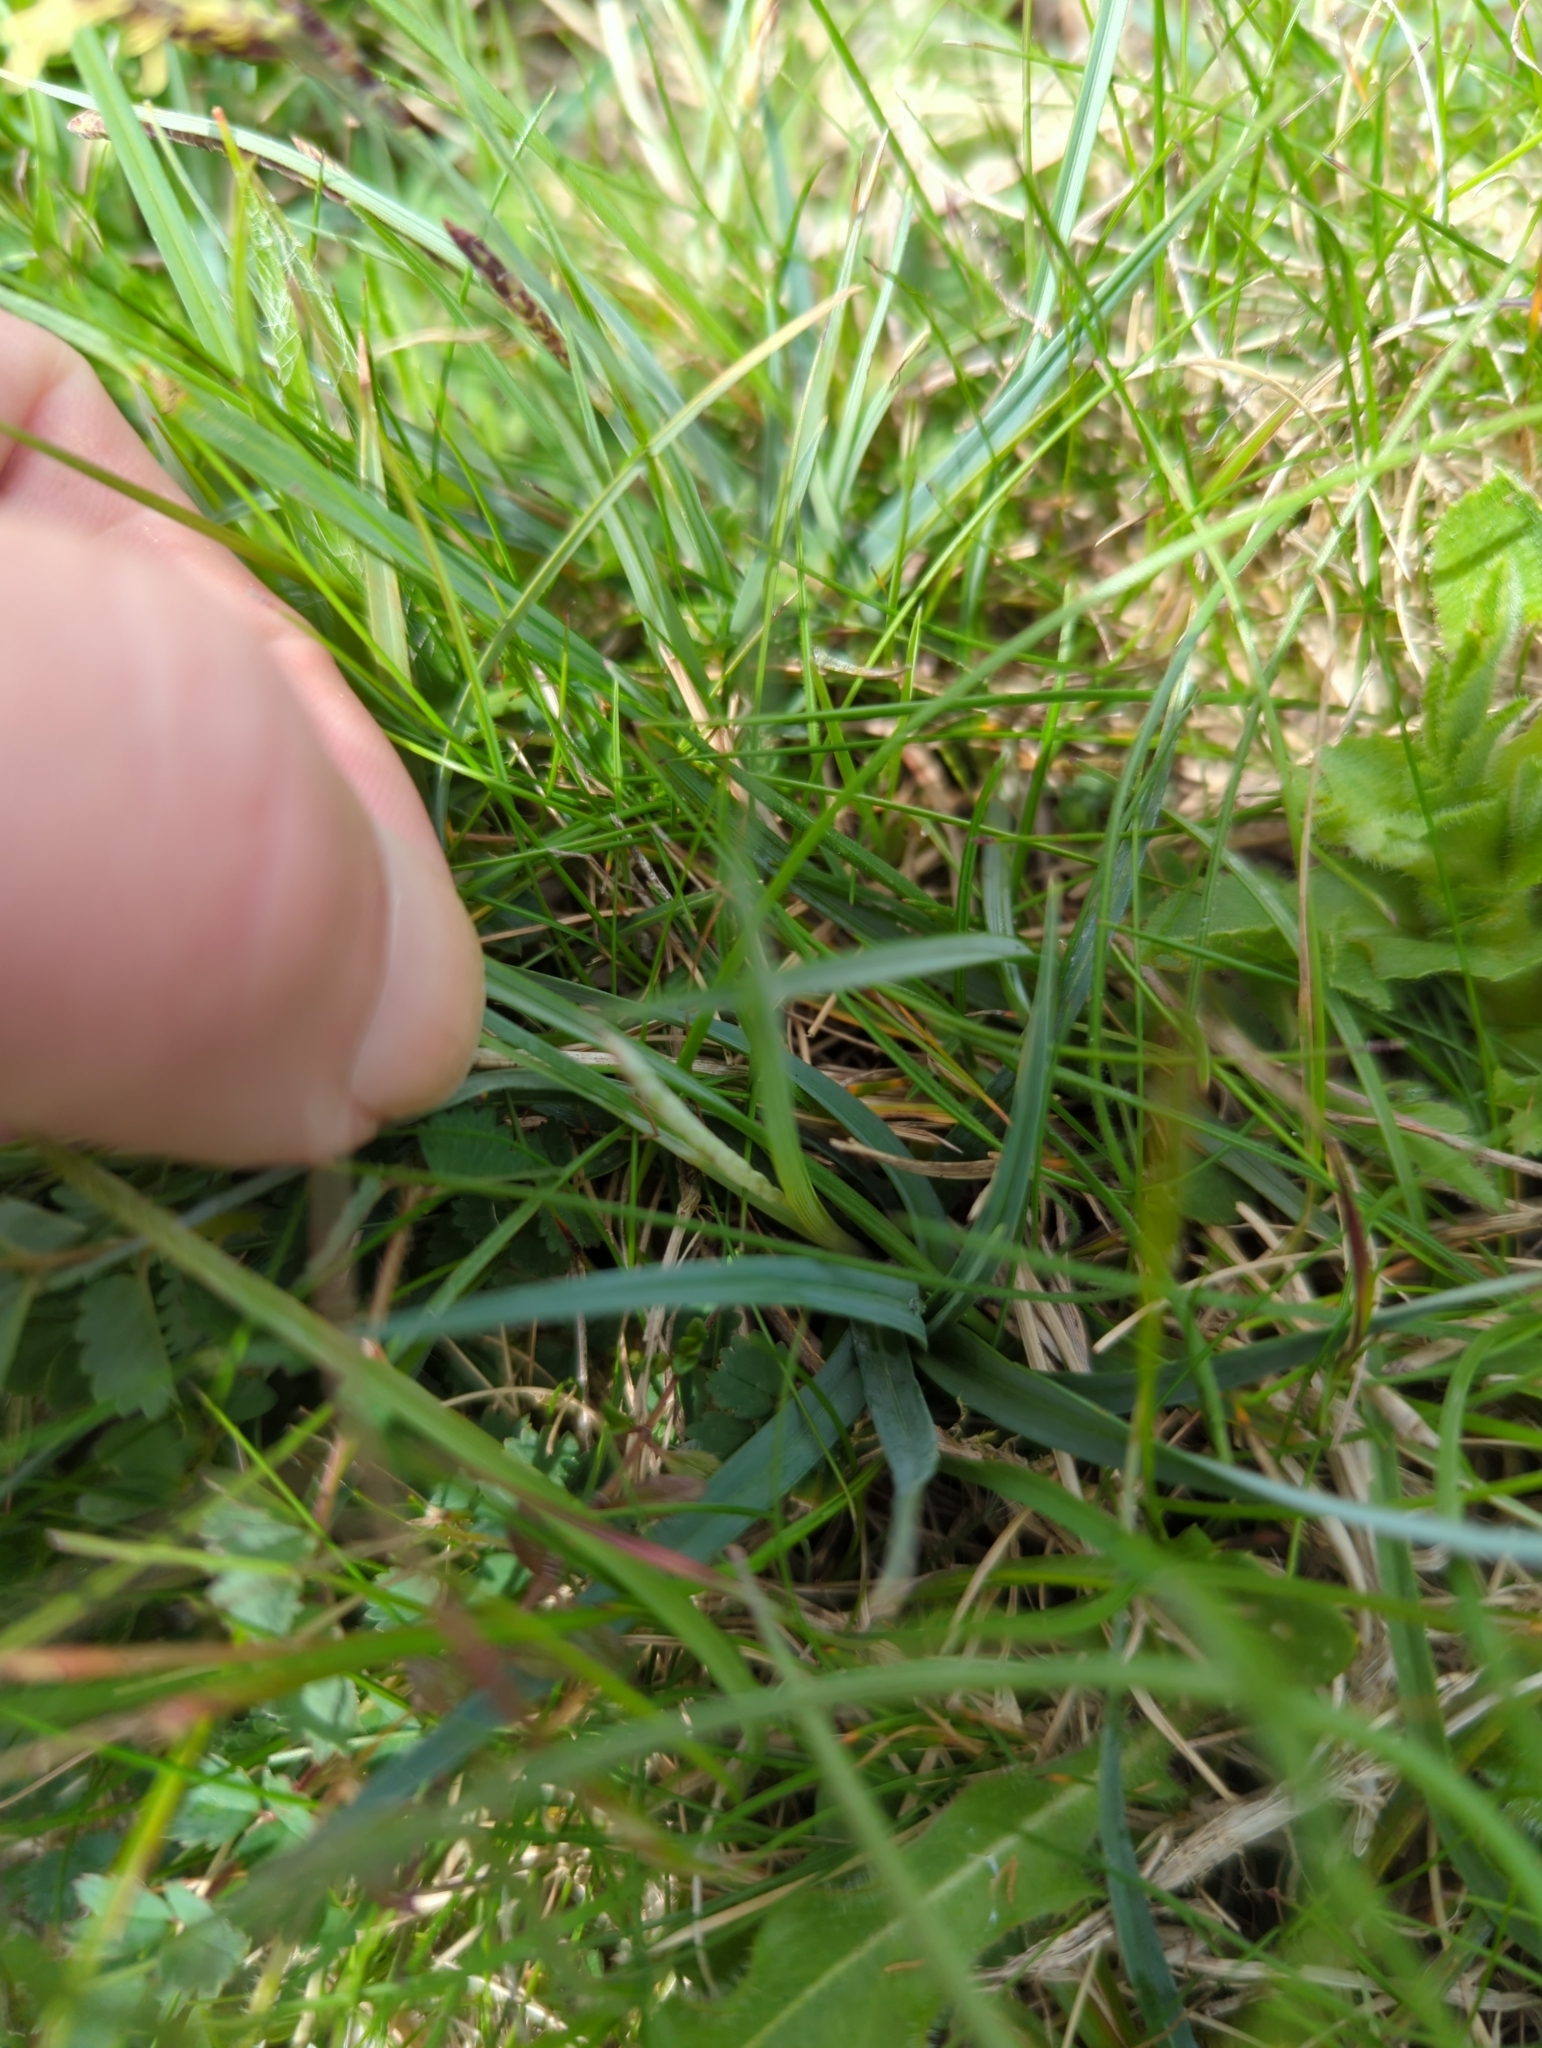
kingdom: Plantae
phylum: Tracheophyta
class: Liliopsida
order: Poales
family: Cyperaceae
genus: Carex
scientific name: Carex caryophyllea
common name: Spring sedge
